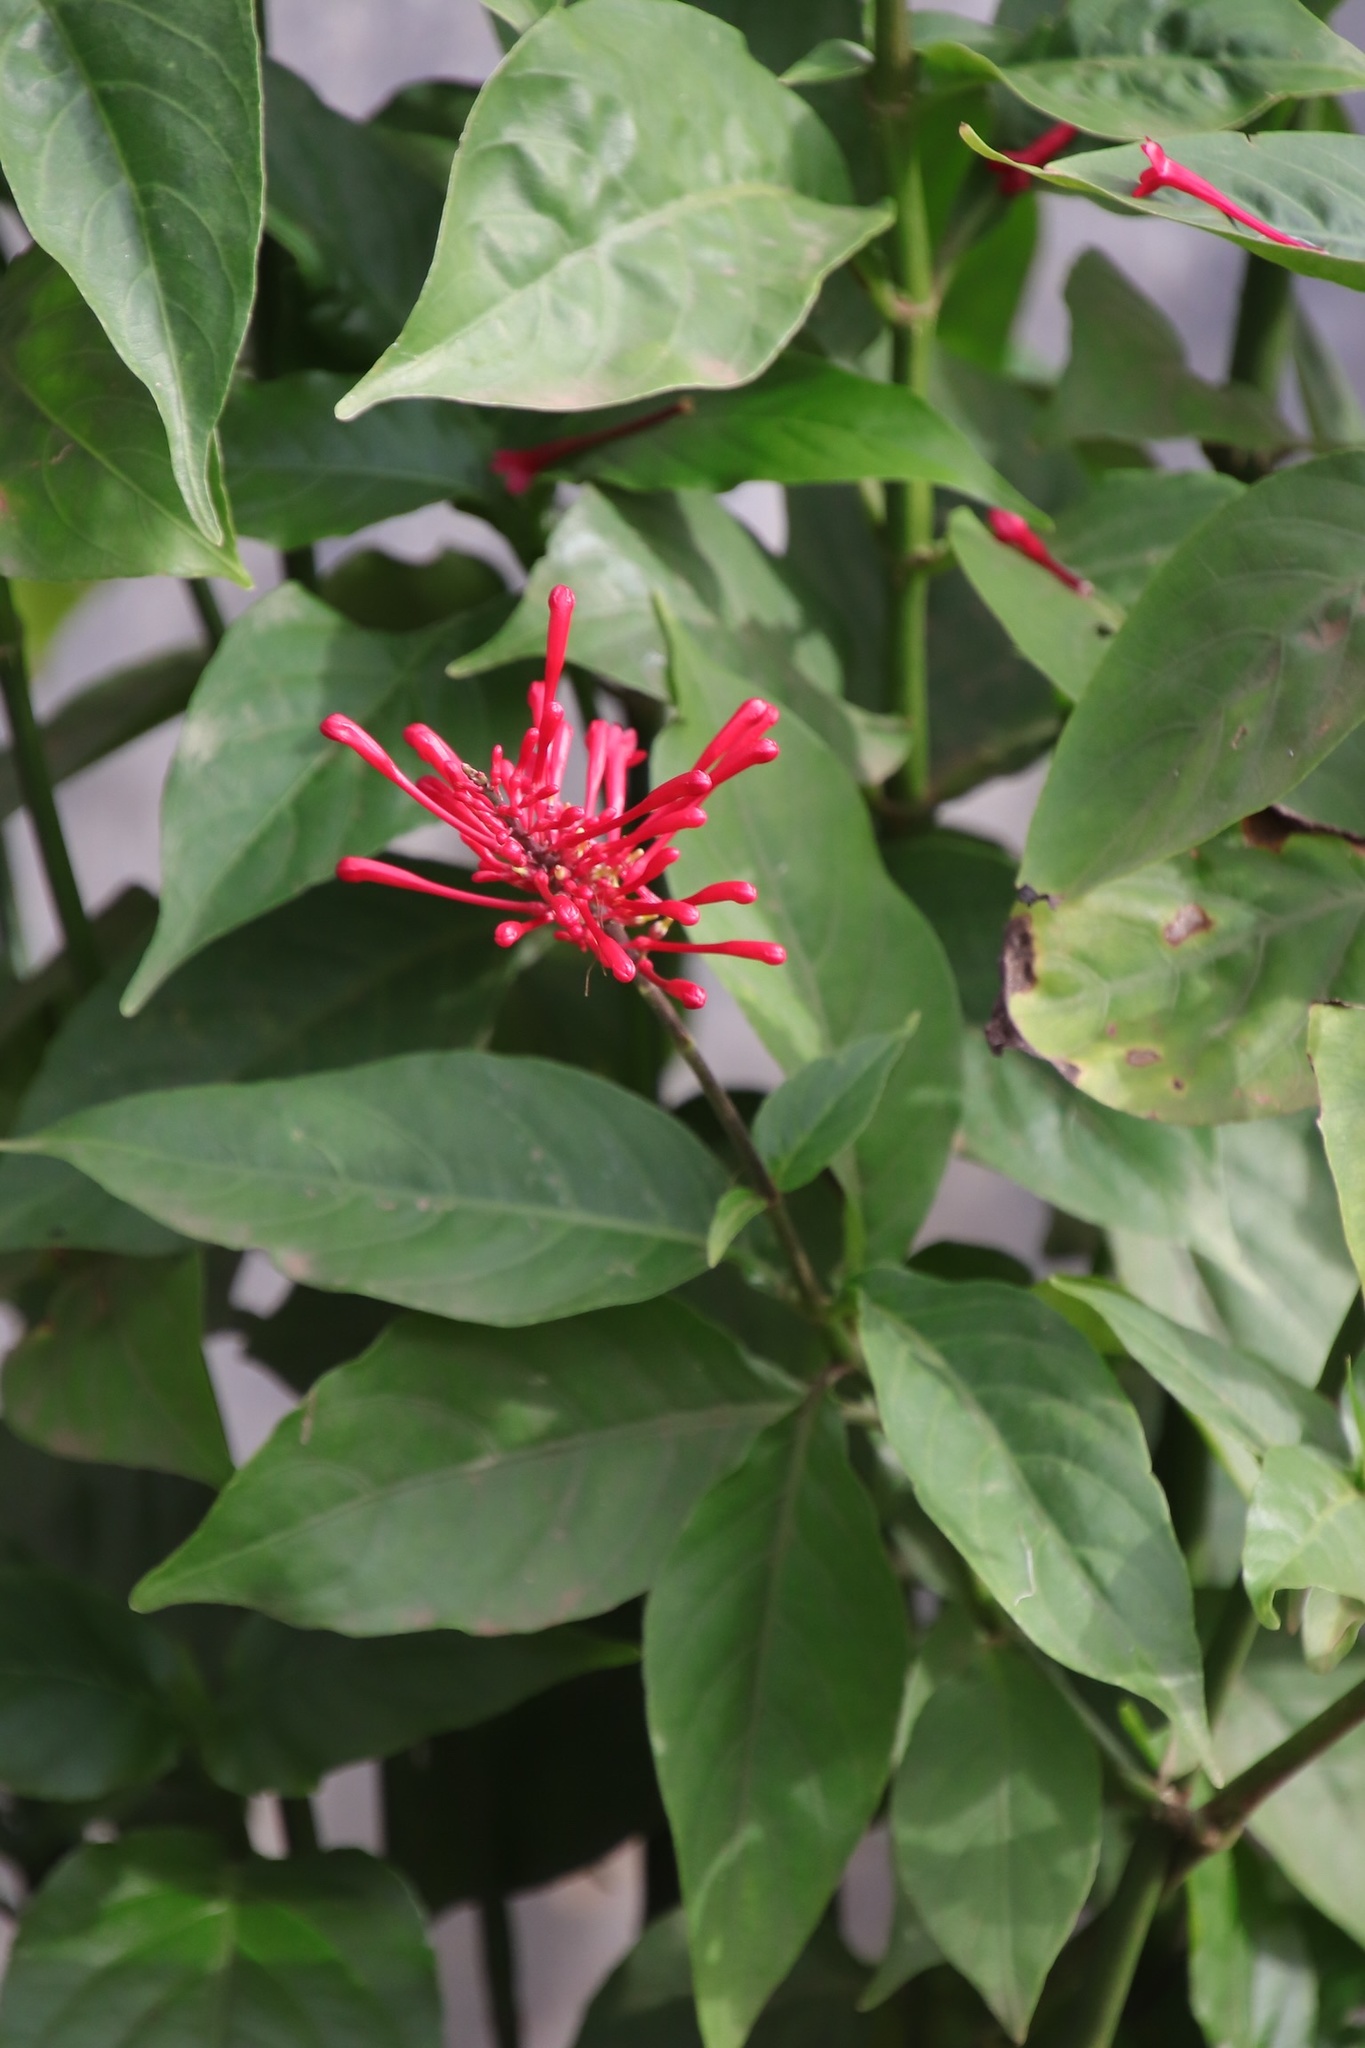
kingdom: Plantae
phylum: Tracheophyta
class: Magnoliopsida
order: Lamiales
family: Acanthaceae
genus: Odontonema
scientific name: Odontonema tubaeforme
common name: Firespike
